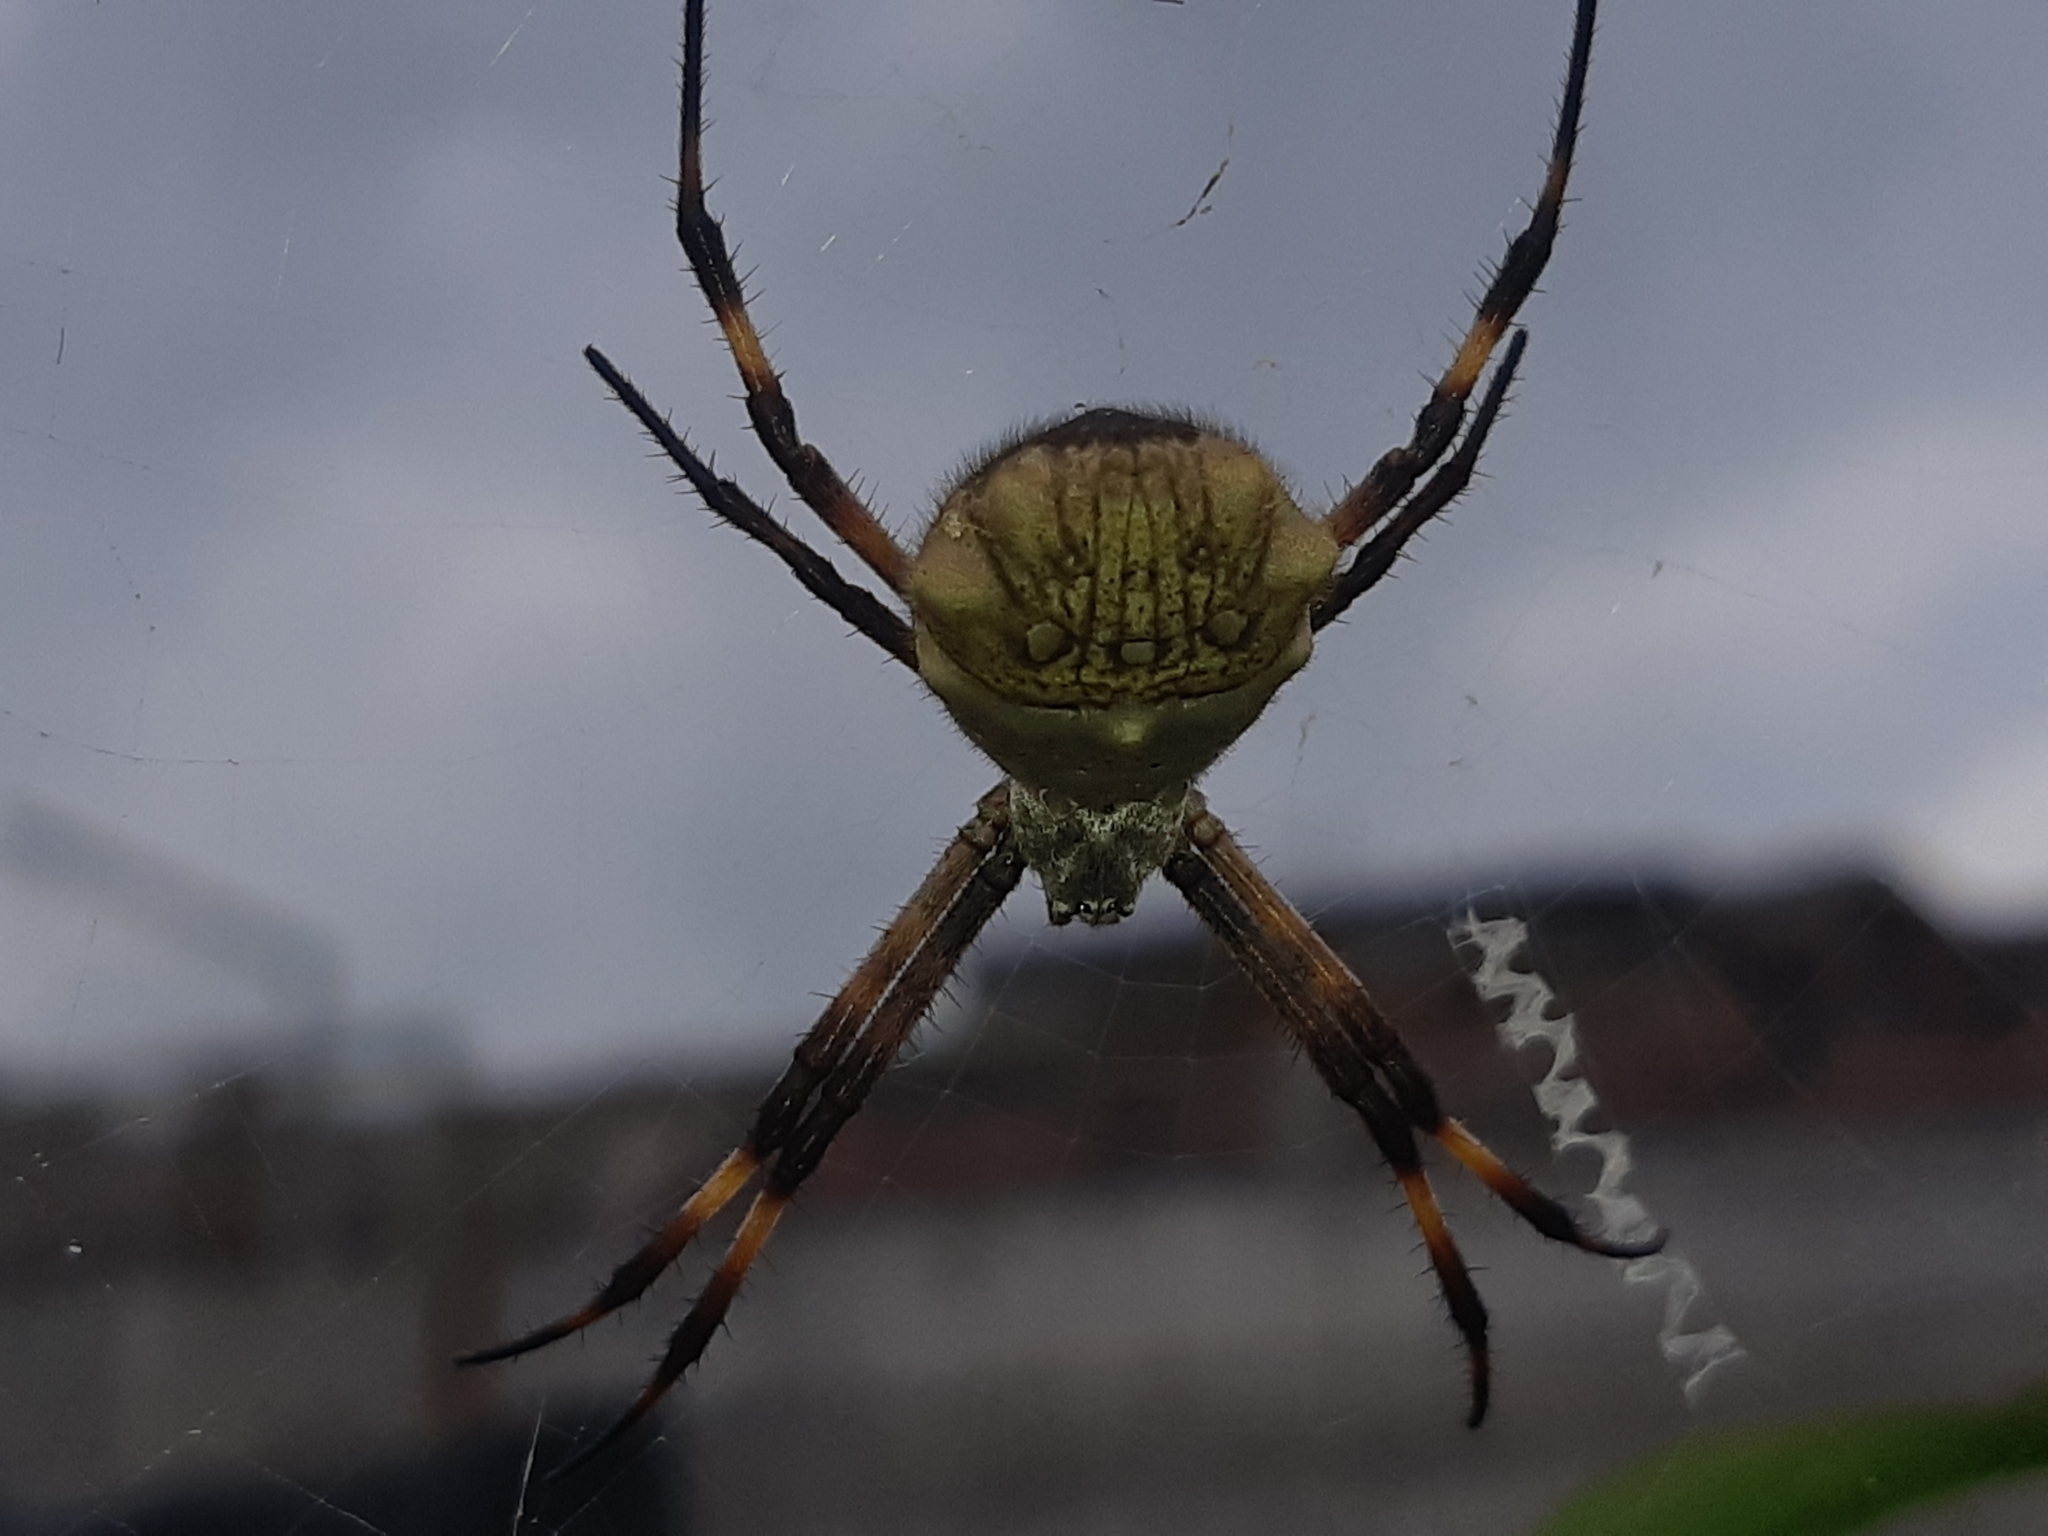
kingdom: Animalia
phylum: Arthropoda
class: Arachnida
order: Araneae
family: Araneidae
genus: Argiope
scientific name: Argiope argentata
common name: Orb weavers
